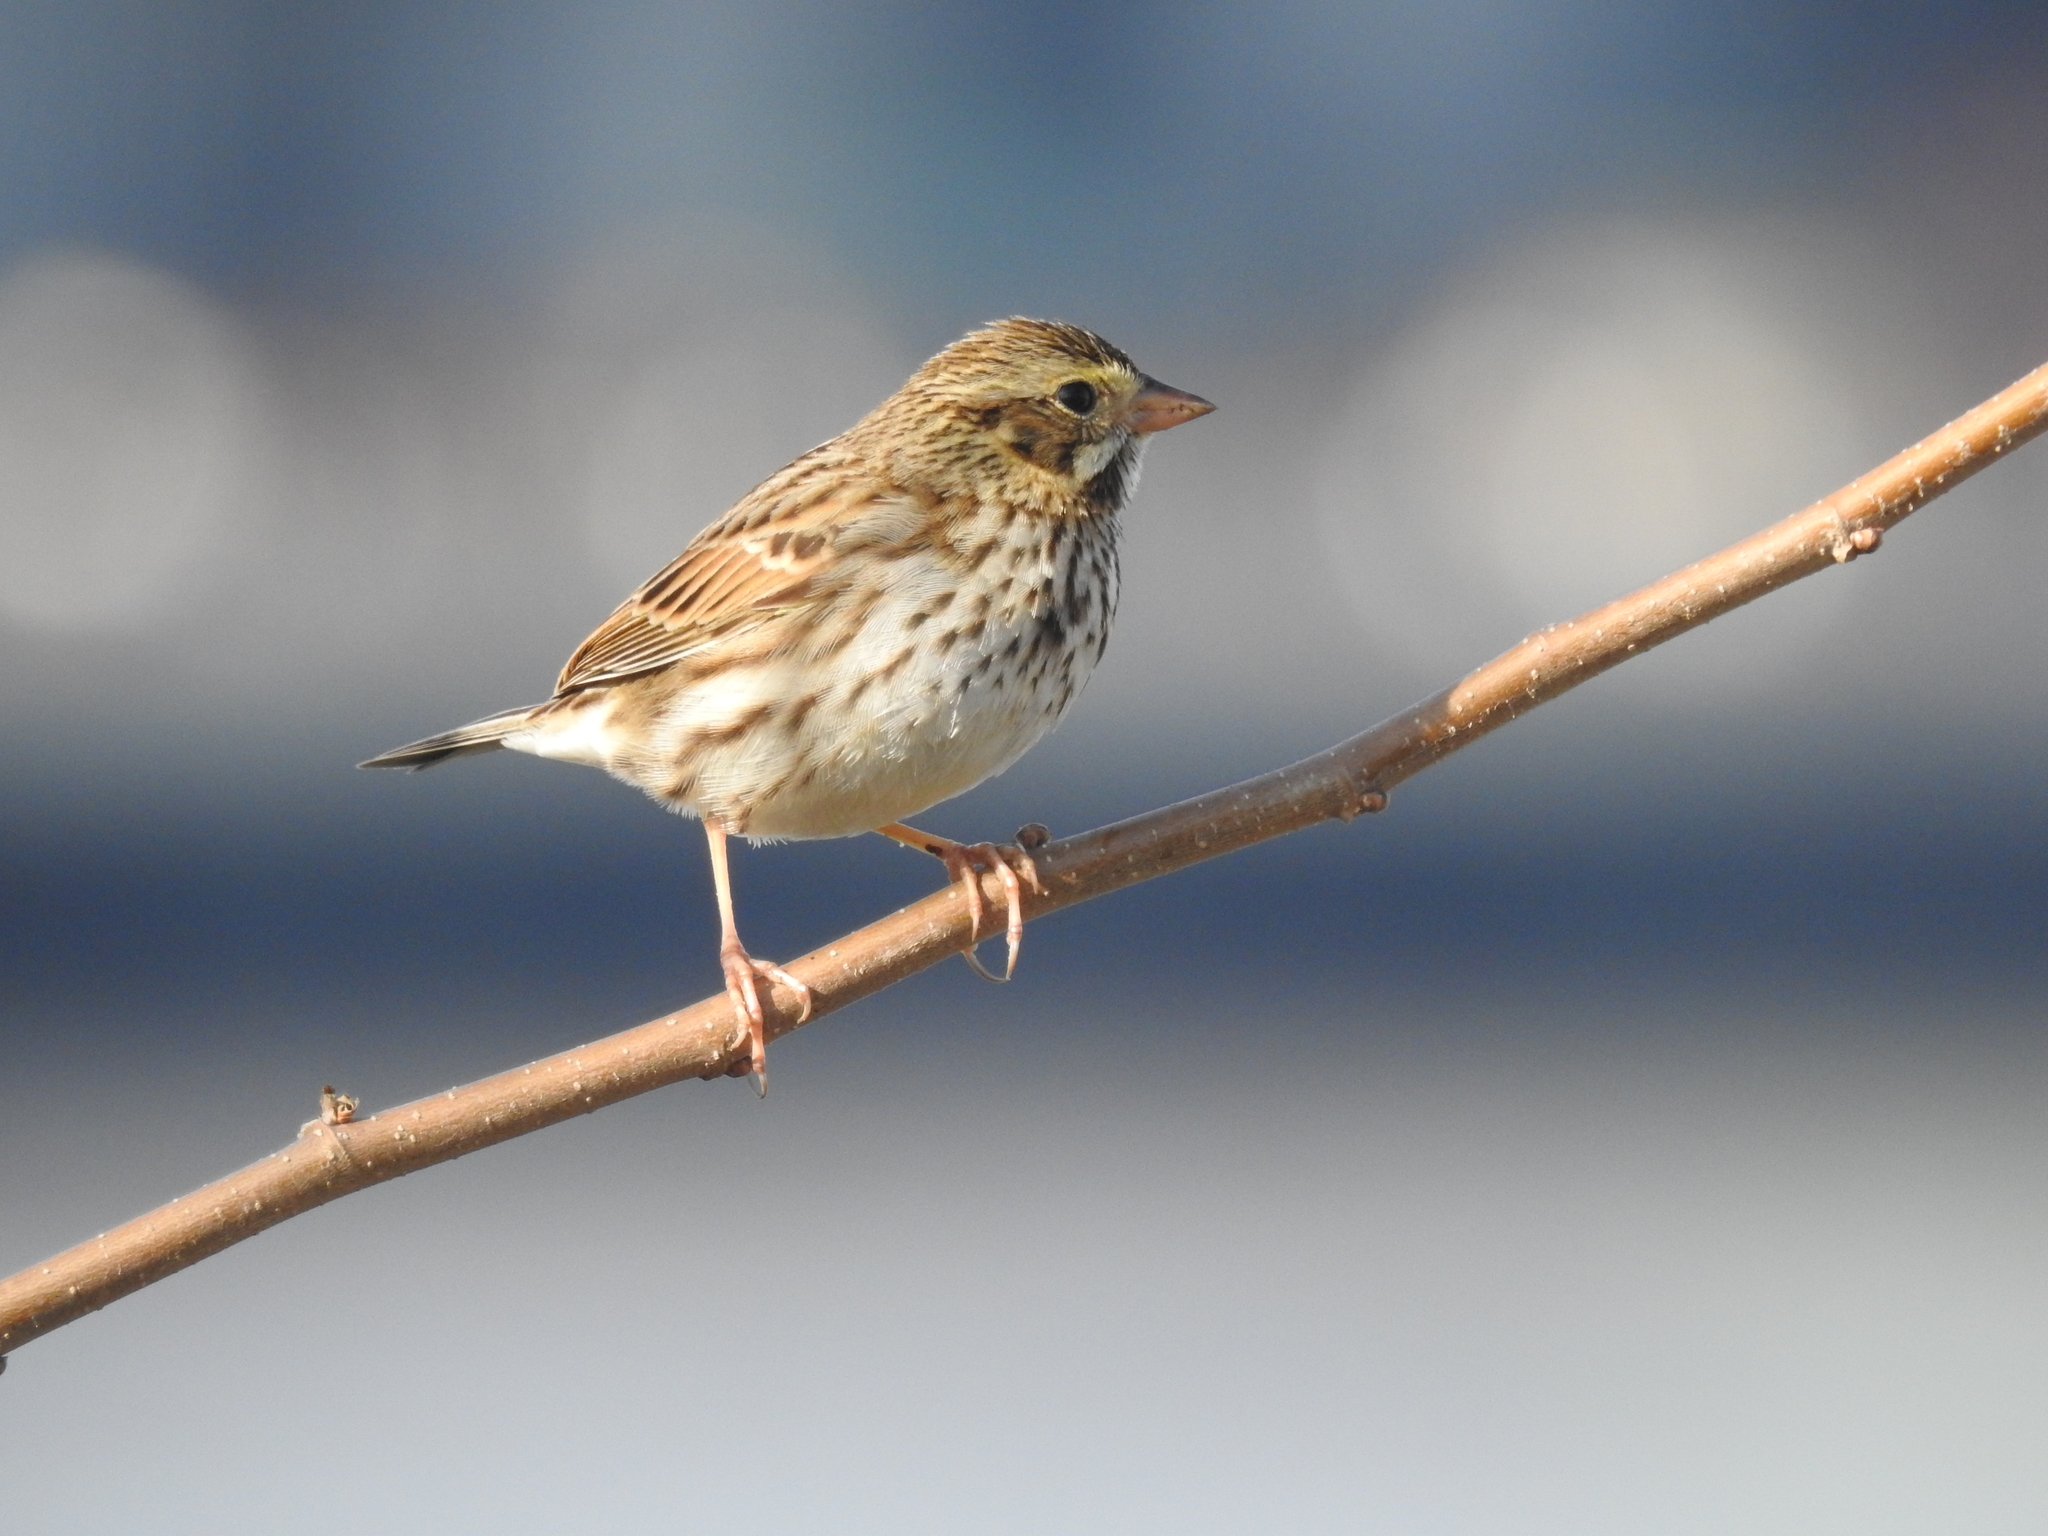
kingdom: Animalia
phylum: Chordata
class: Aves
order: Passeriformes
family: Passerellidae
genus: Passerculus
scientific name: Passerculus sandwichensis
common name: Savannah sparrow
